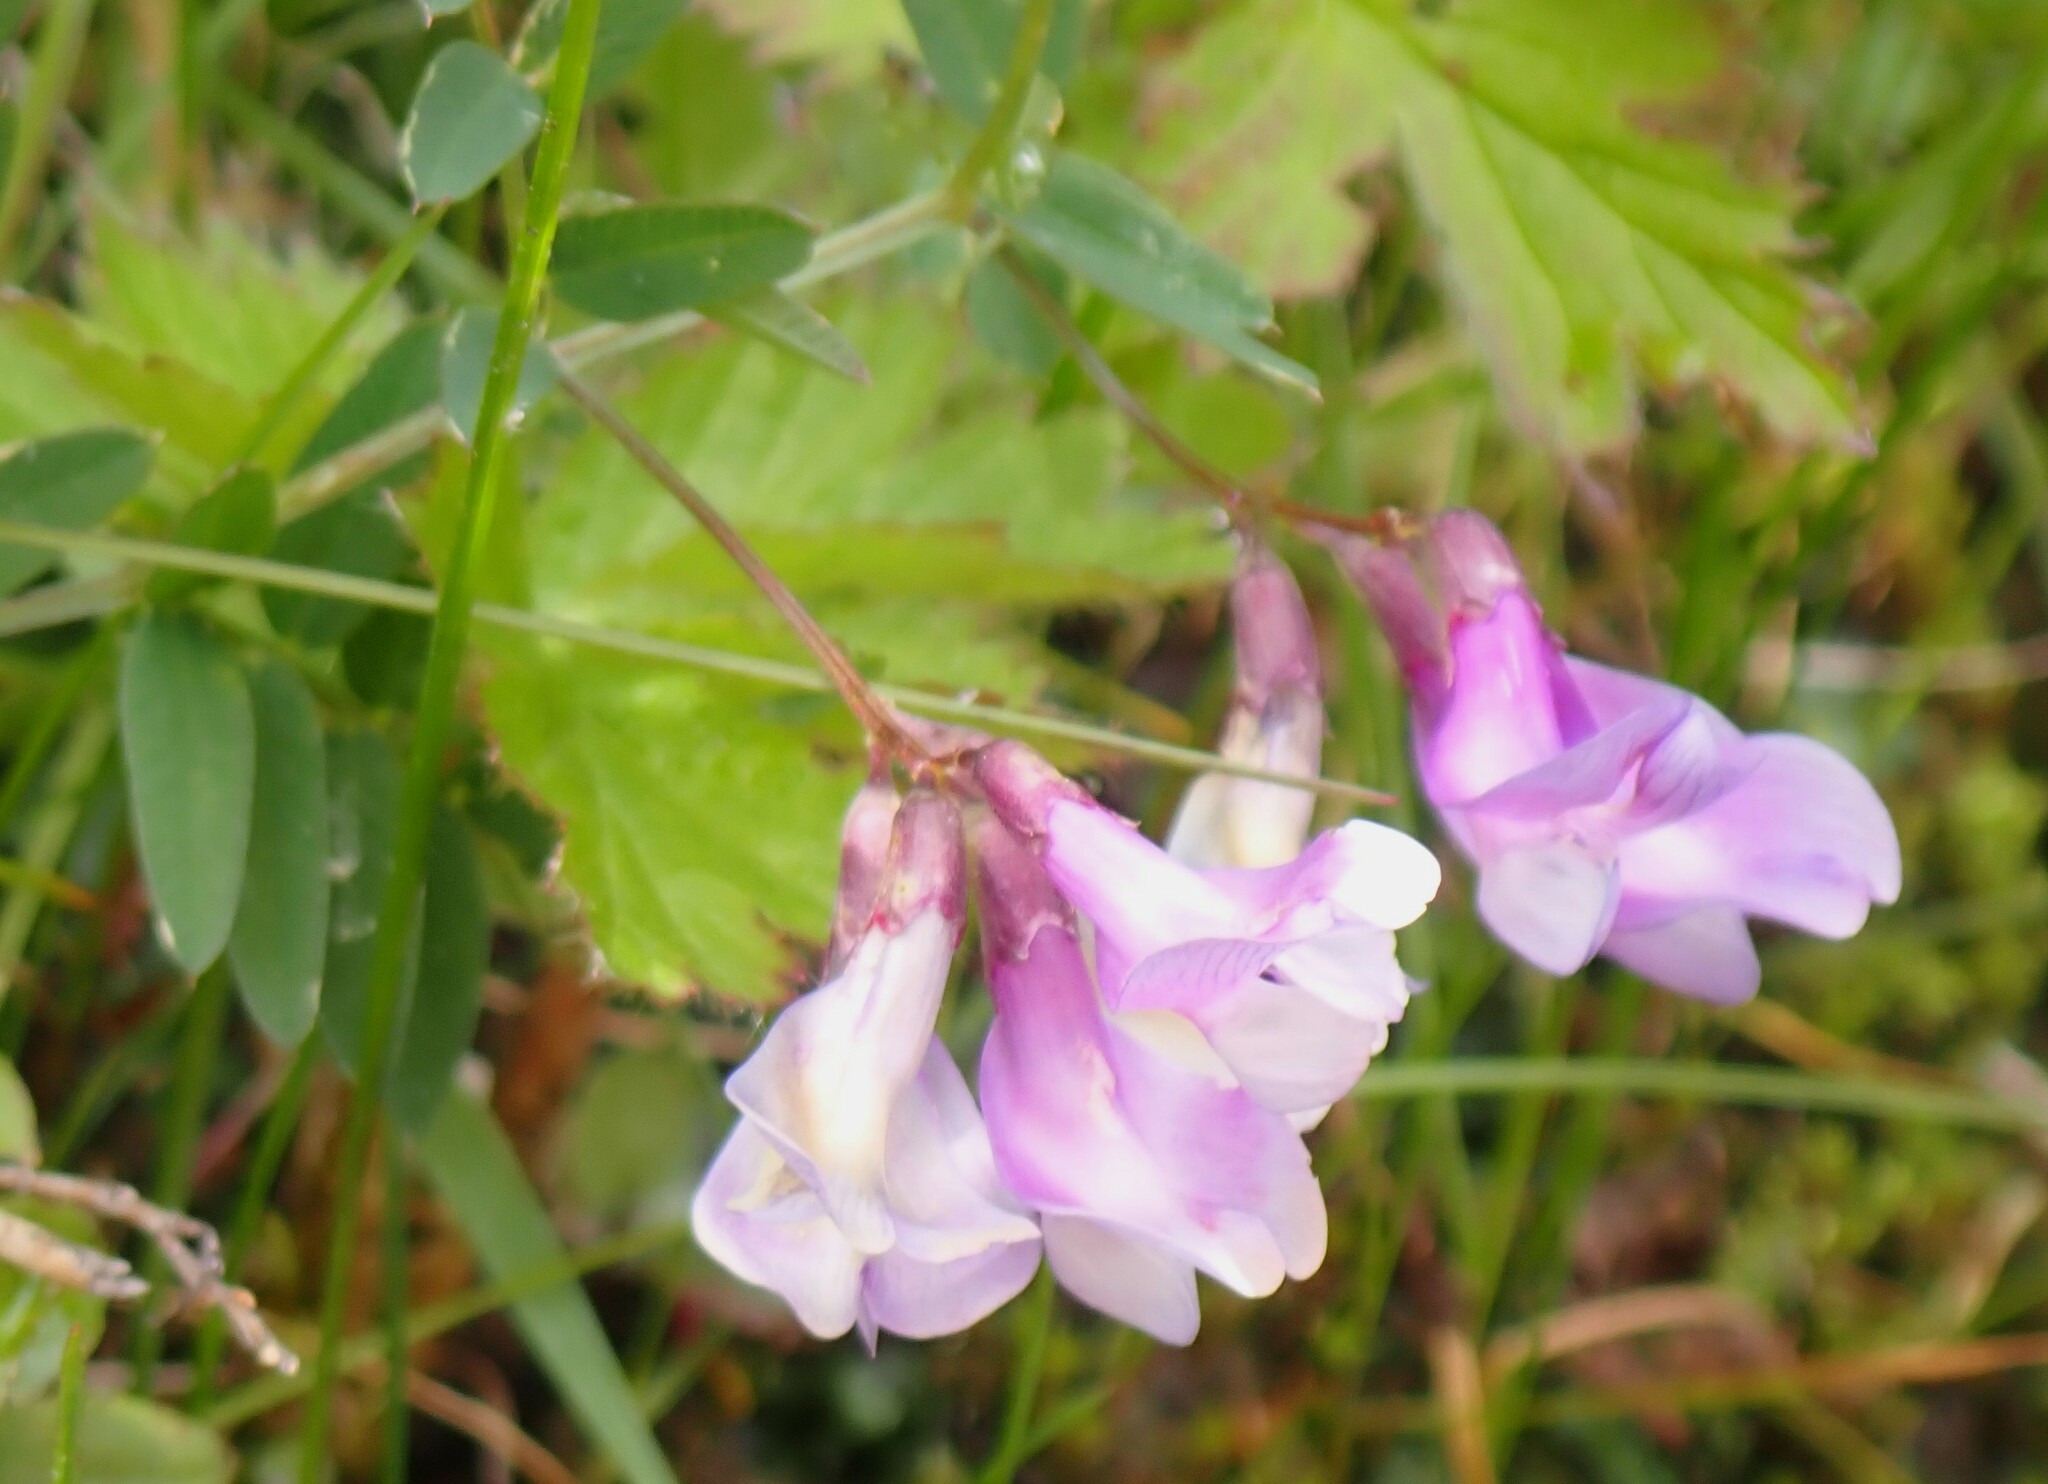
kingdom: Plantae
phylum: Tracheophyta
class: Magnoliopsida
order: Fabales
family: Fabaceae
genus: Vicia
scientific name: Vicia americana
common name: American vetch
